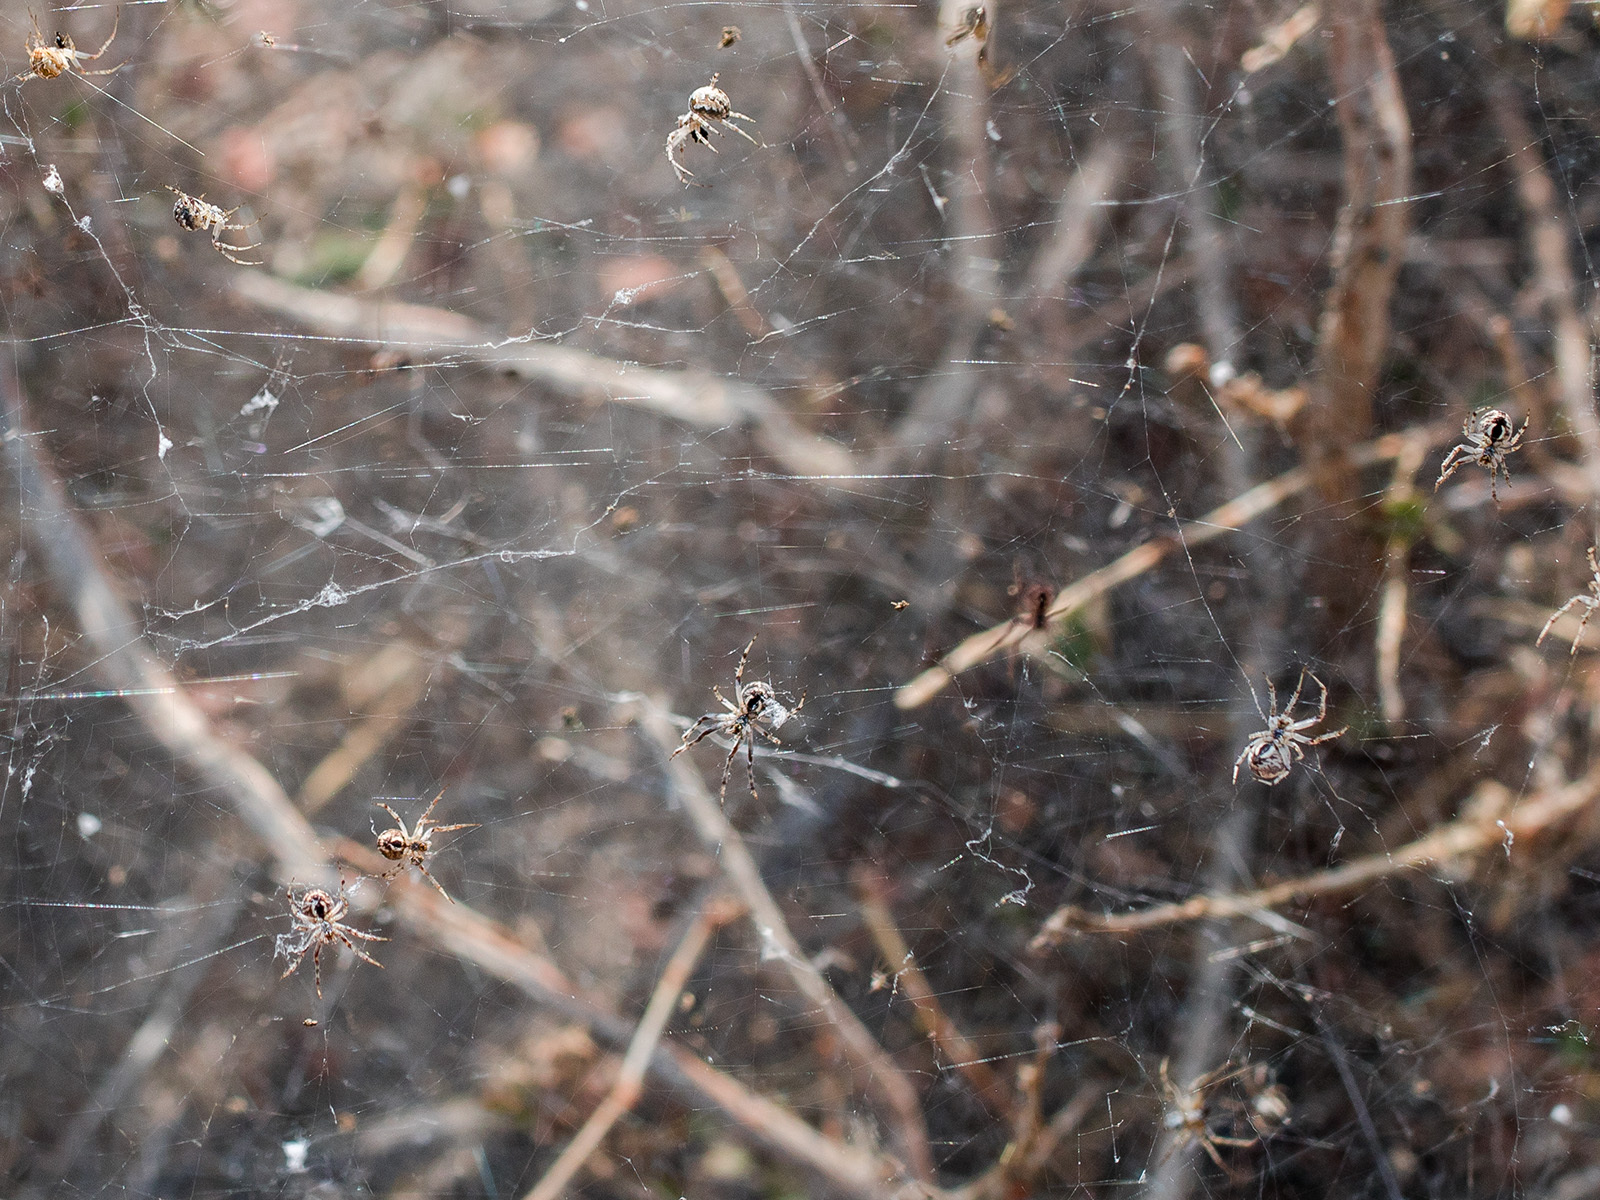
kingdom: Animalia
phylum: Arthropoda
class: Arachnida
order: Araneae
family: Araneidae
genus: Araneus
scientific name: Araneus pallasi
